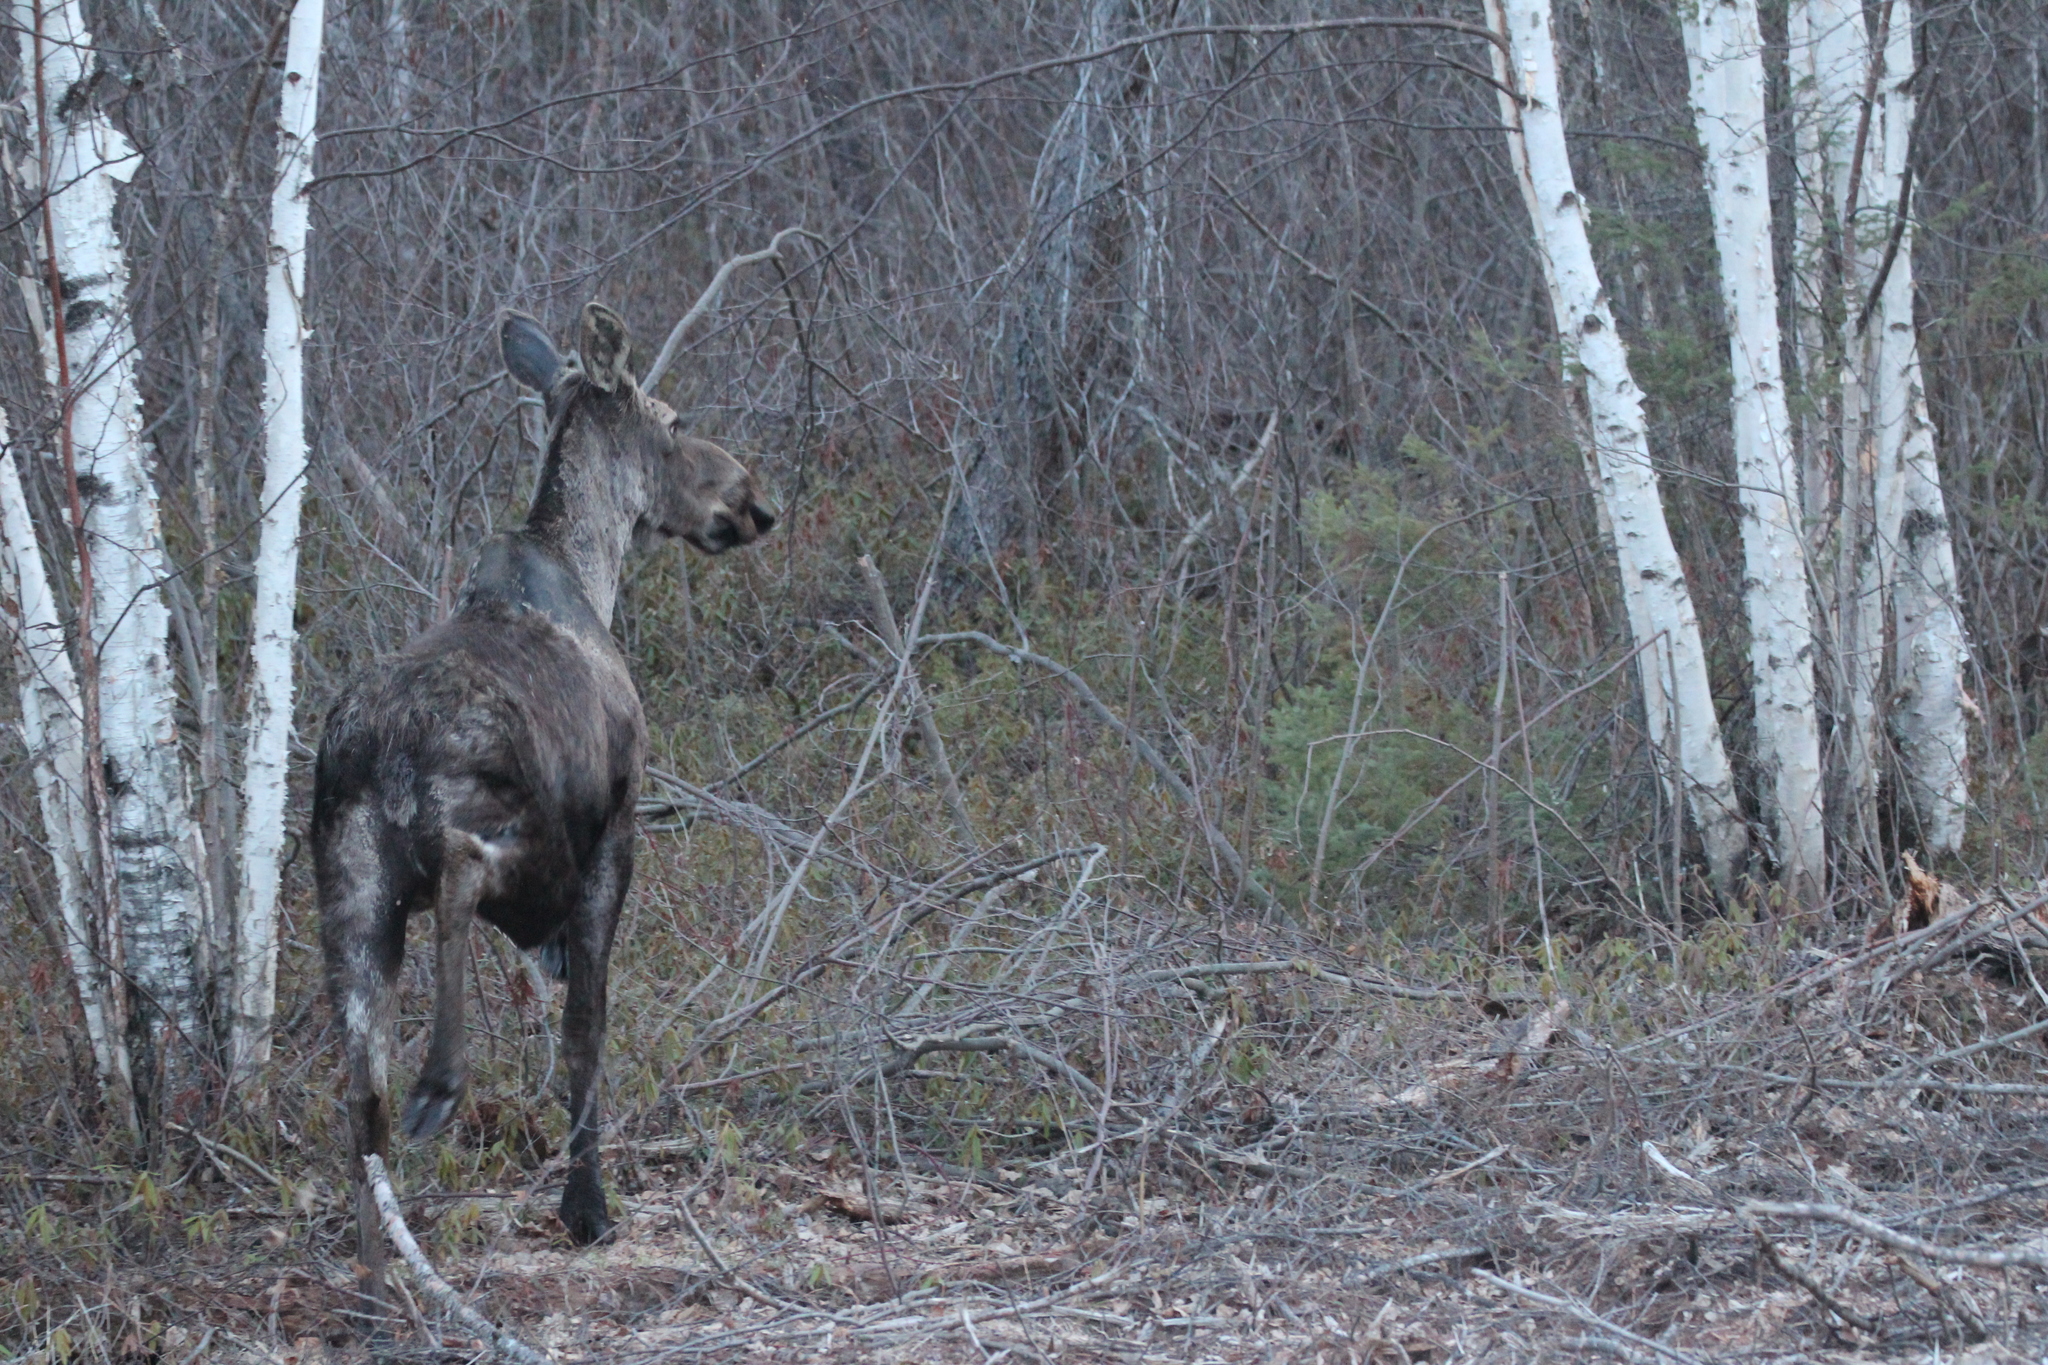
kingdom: Animalia
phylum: Chordata
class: Mammalia
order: Artiodactyla
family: Cervidae
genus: Alces
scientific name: Alces alces
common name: Moose
